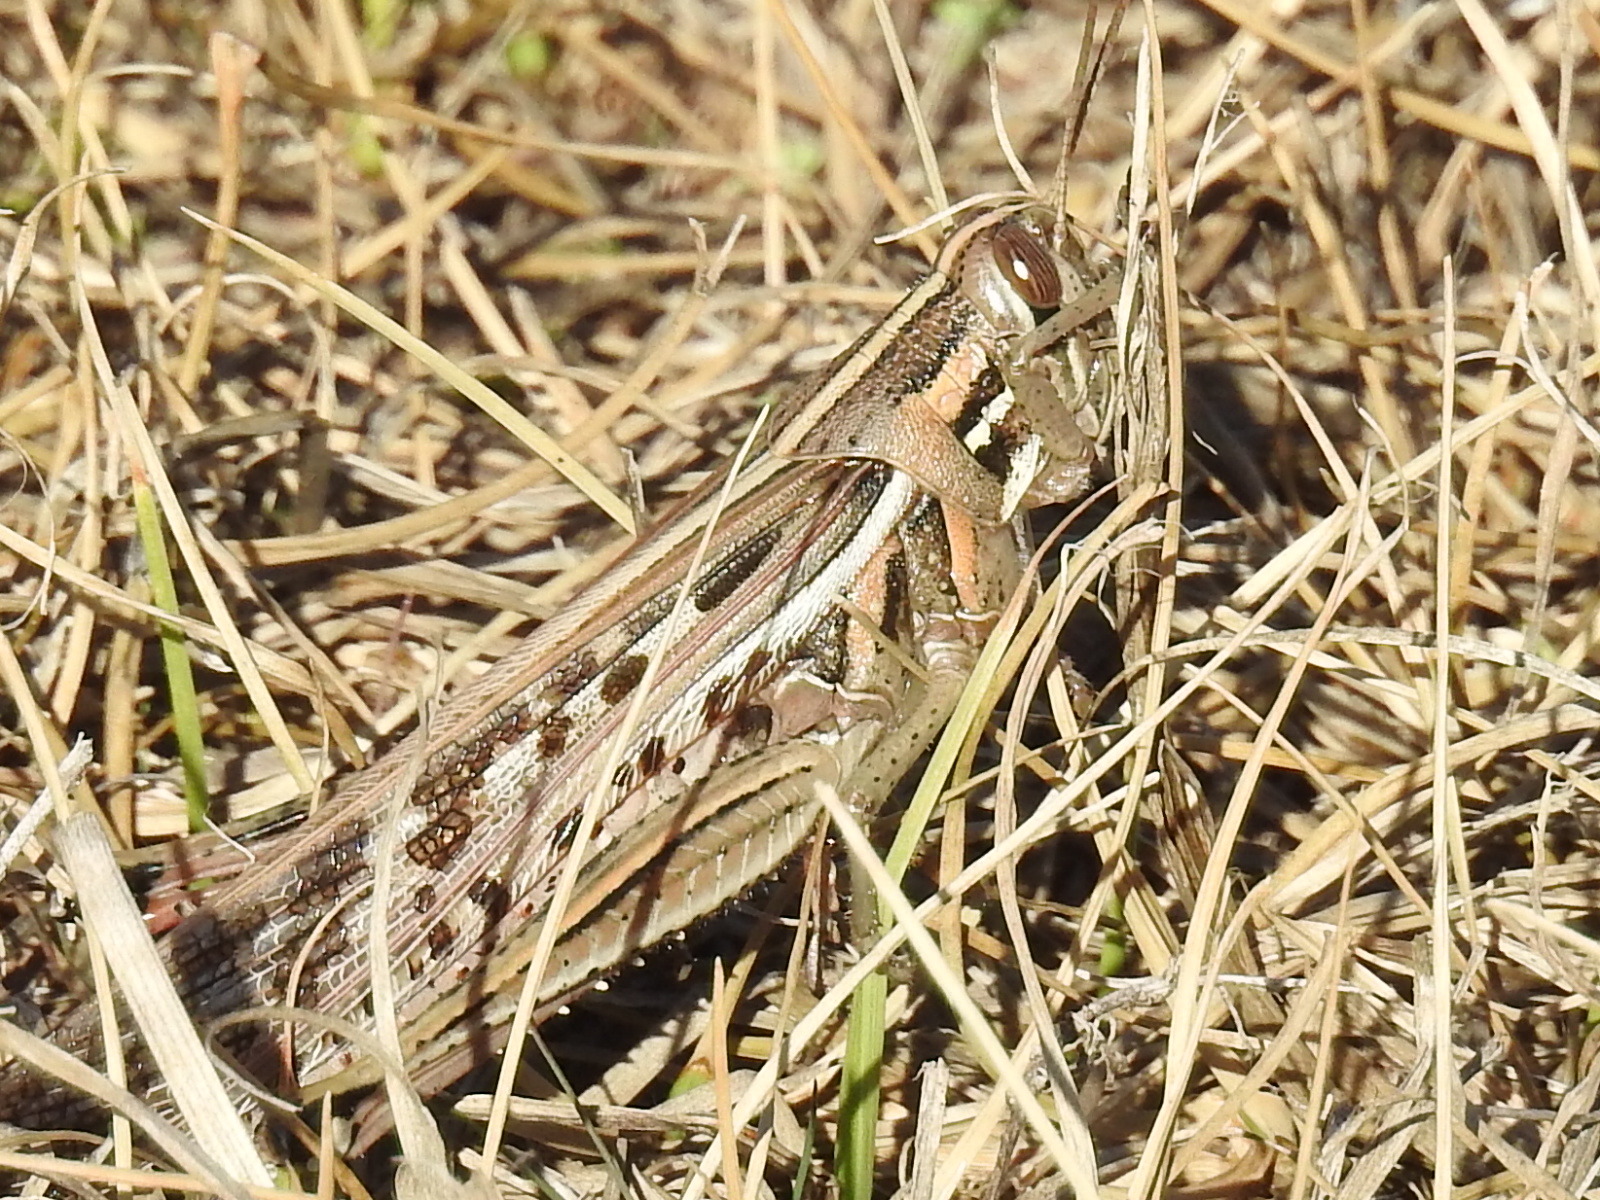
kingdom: Animalia
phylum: Arthropoda
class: Insecta
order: Orthoptera
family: Acrididae
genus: Schistocerca
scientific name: Schistocerca americana
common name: American bird locust
